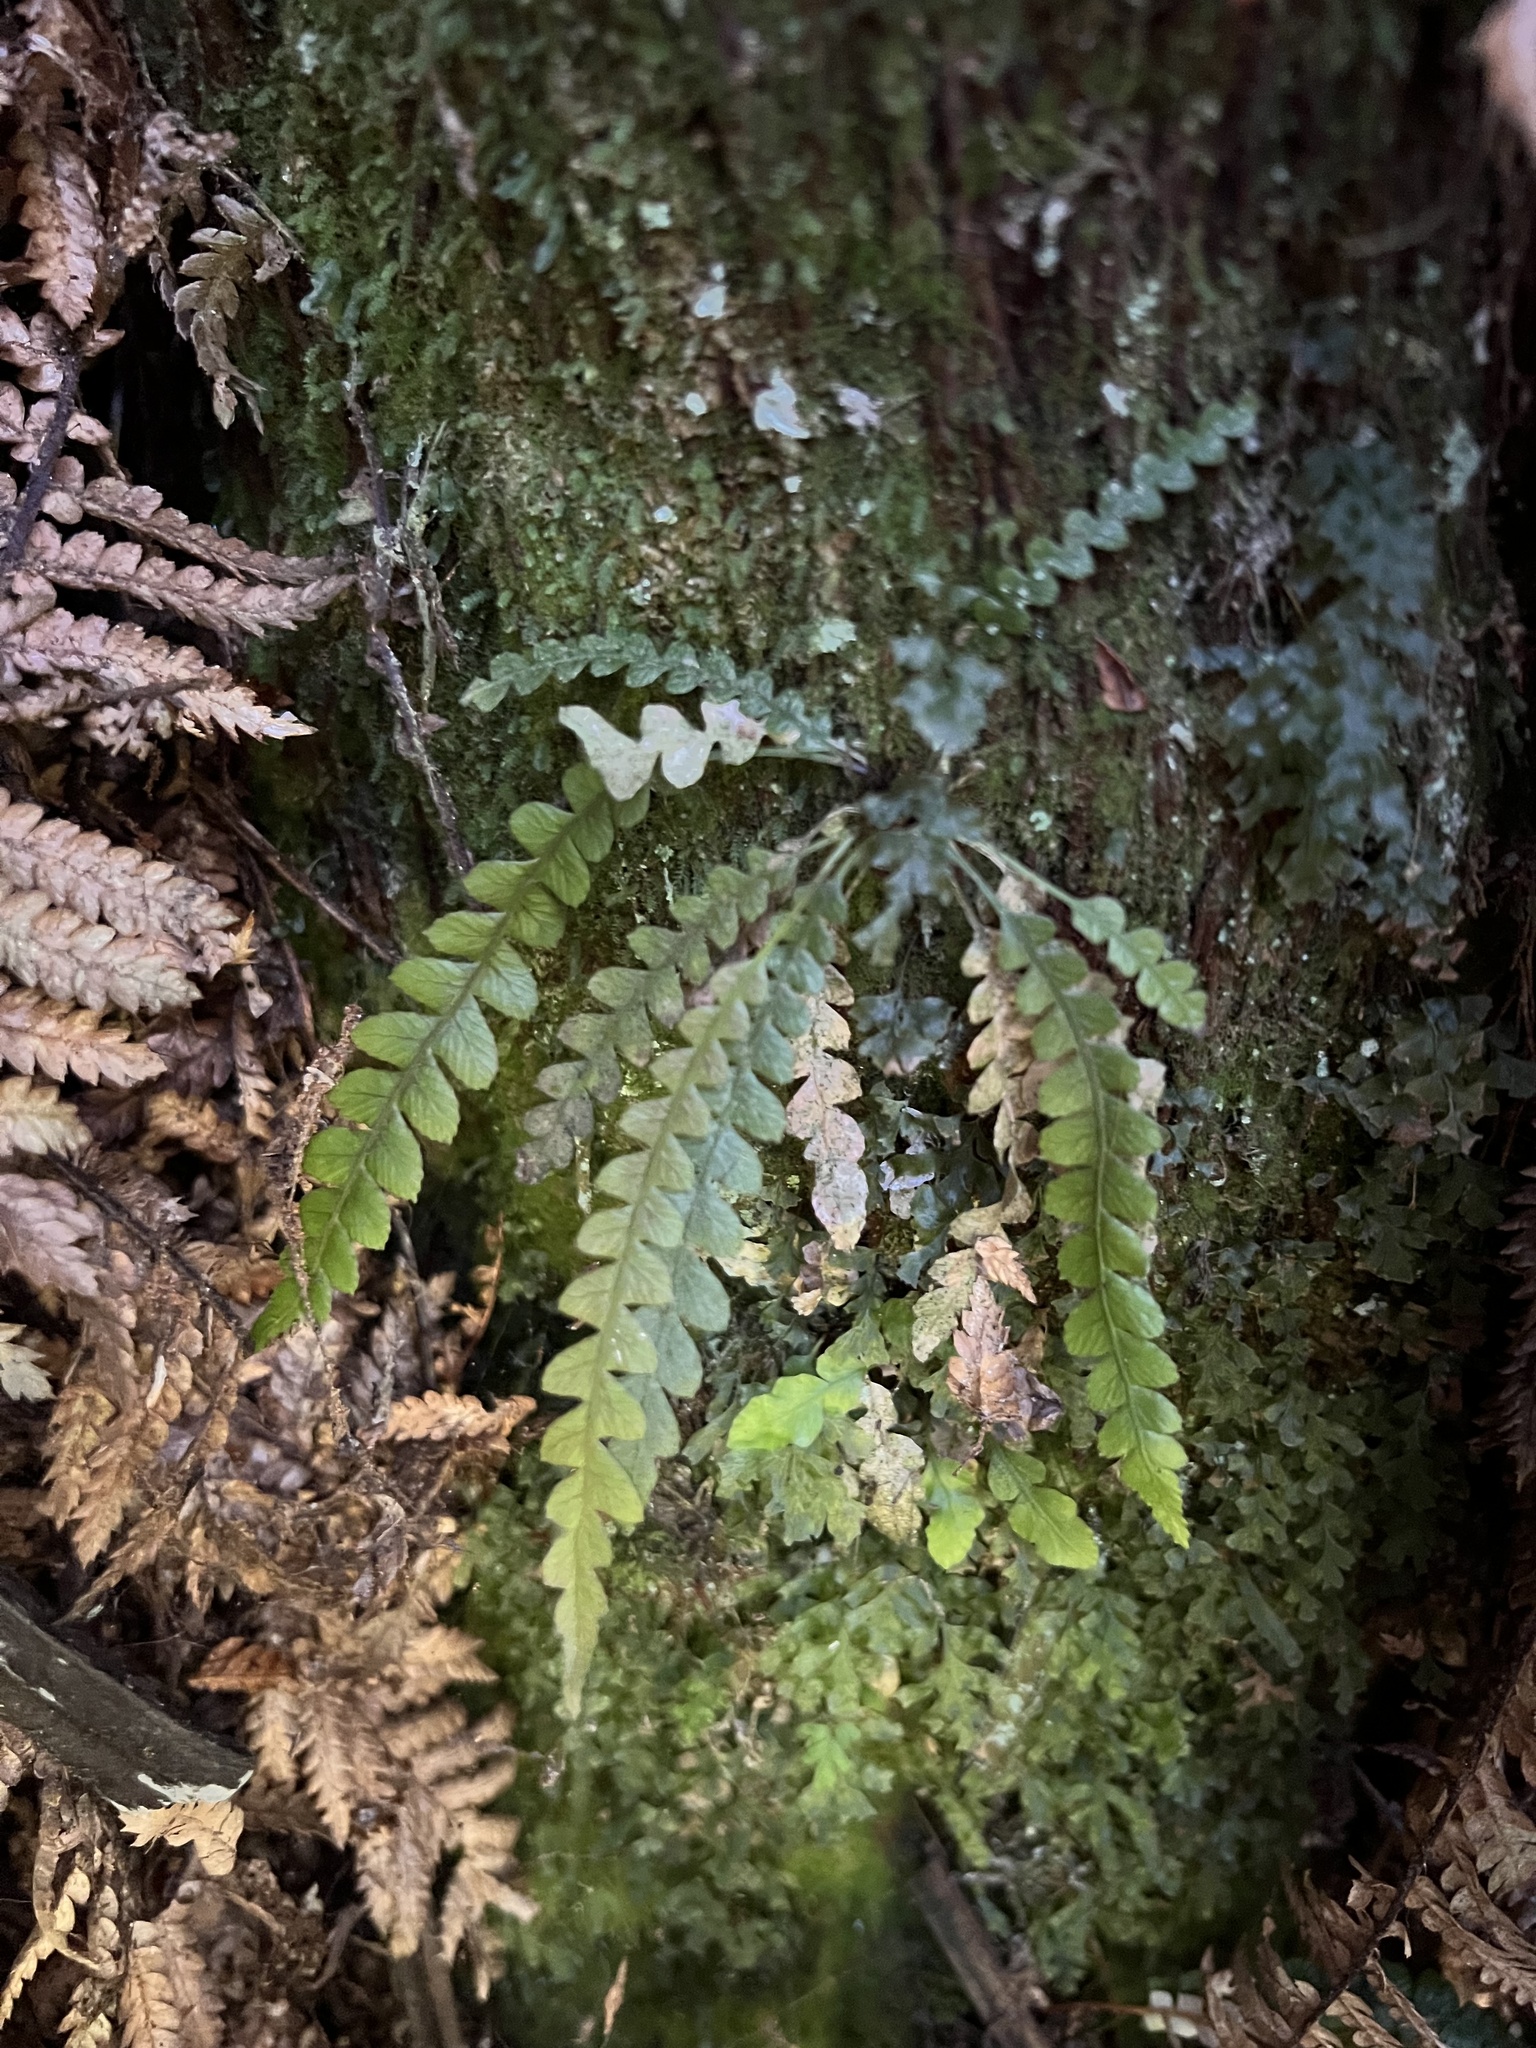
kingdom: Plantae
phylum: Tracheophyta
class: Polypodiopsida
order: Polypodiales
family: Blechnaceae
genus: Austroblechnum
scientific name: Austroblechnum membranaceum
